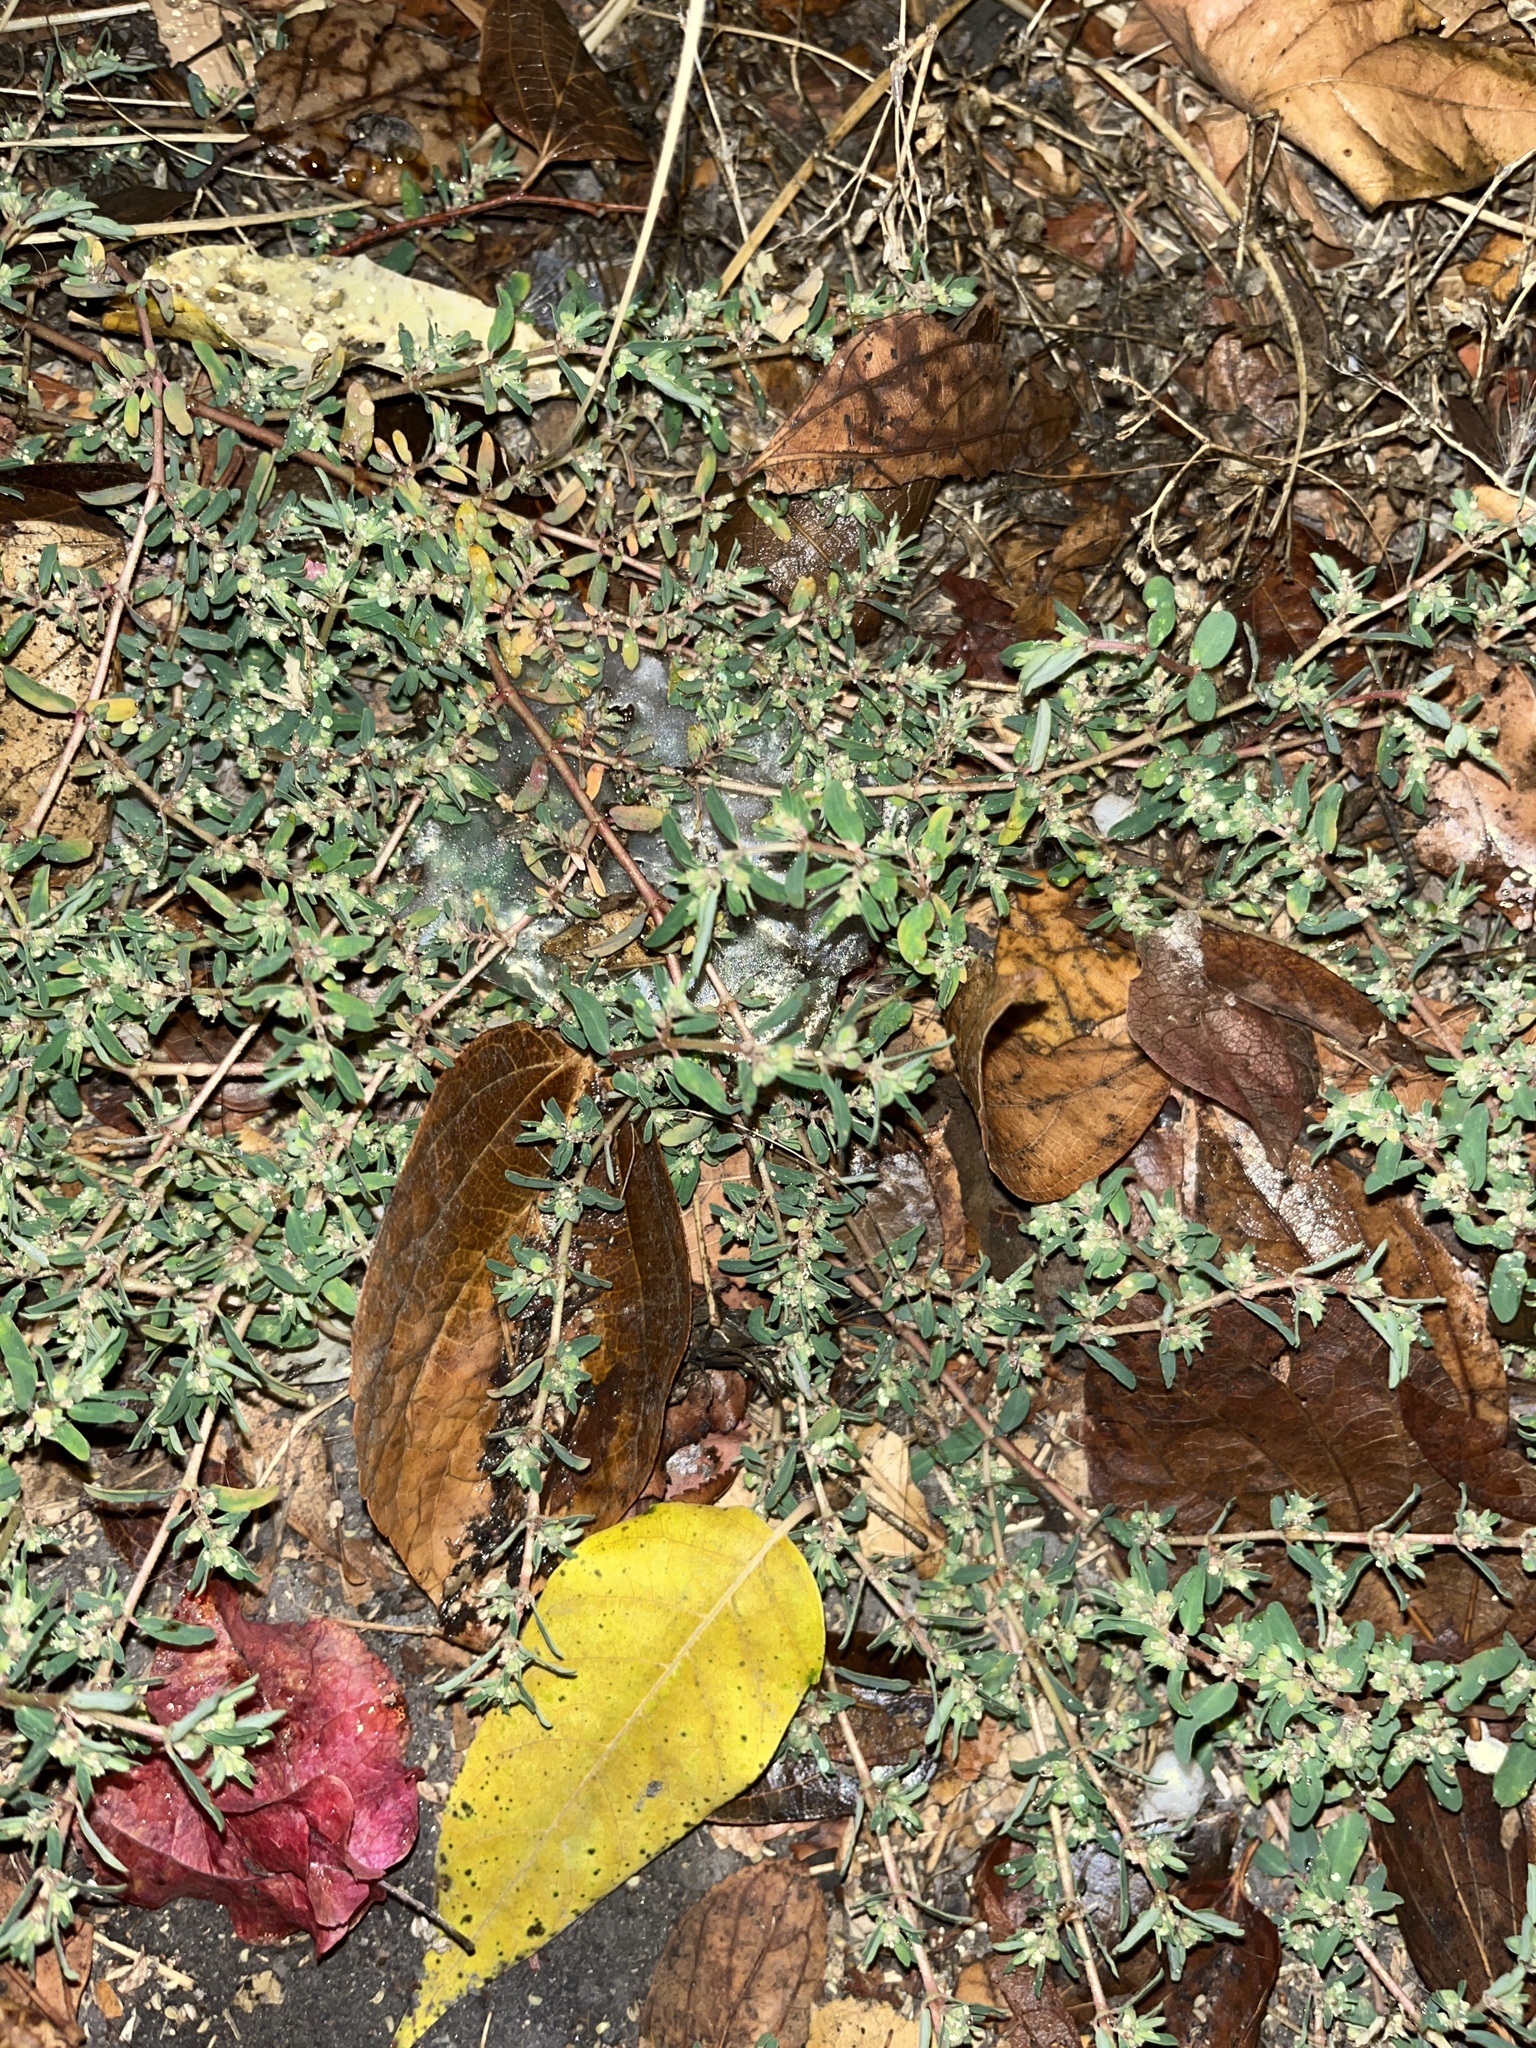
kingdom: Plantae
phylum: Tracheophyta
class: Magnoliopsida
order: Malpighiales
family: Euphorbiaceae
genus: Euphorbia
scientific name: Euphorbia maculata
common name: Spotted spurge
